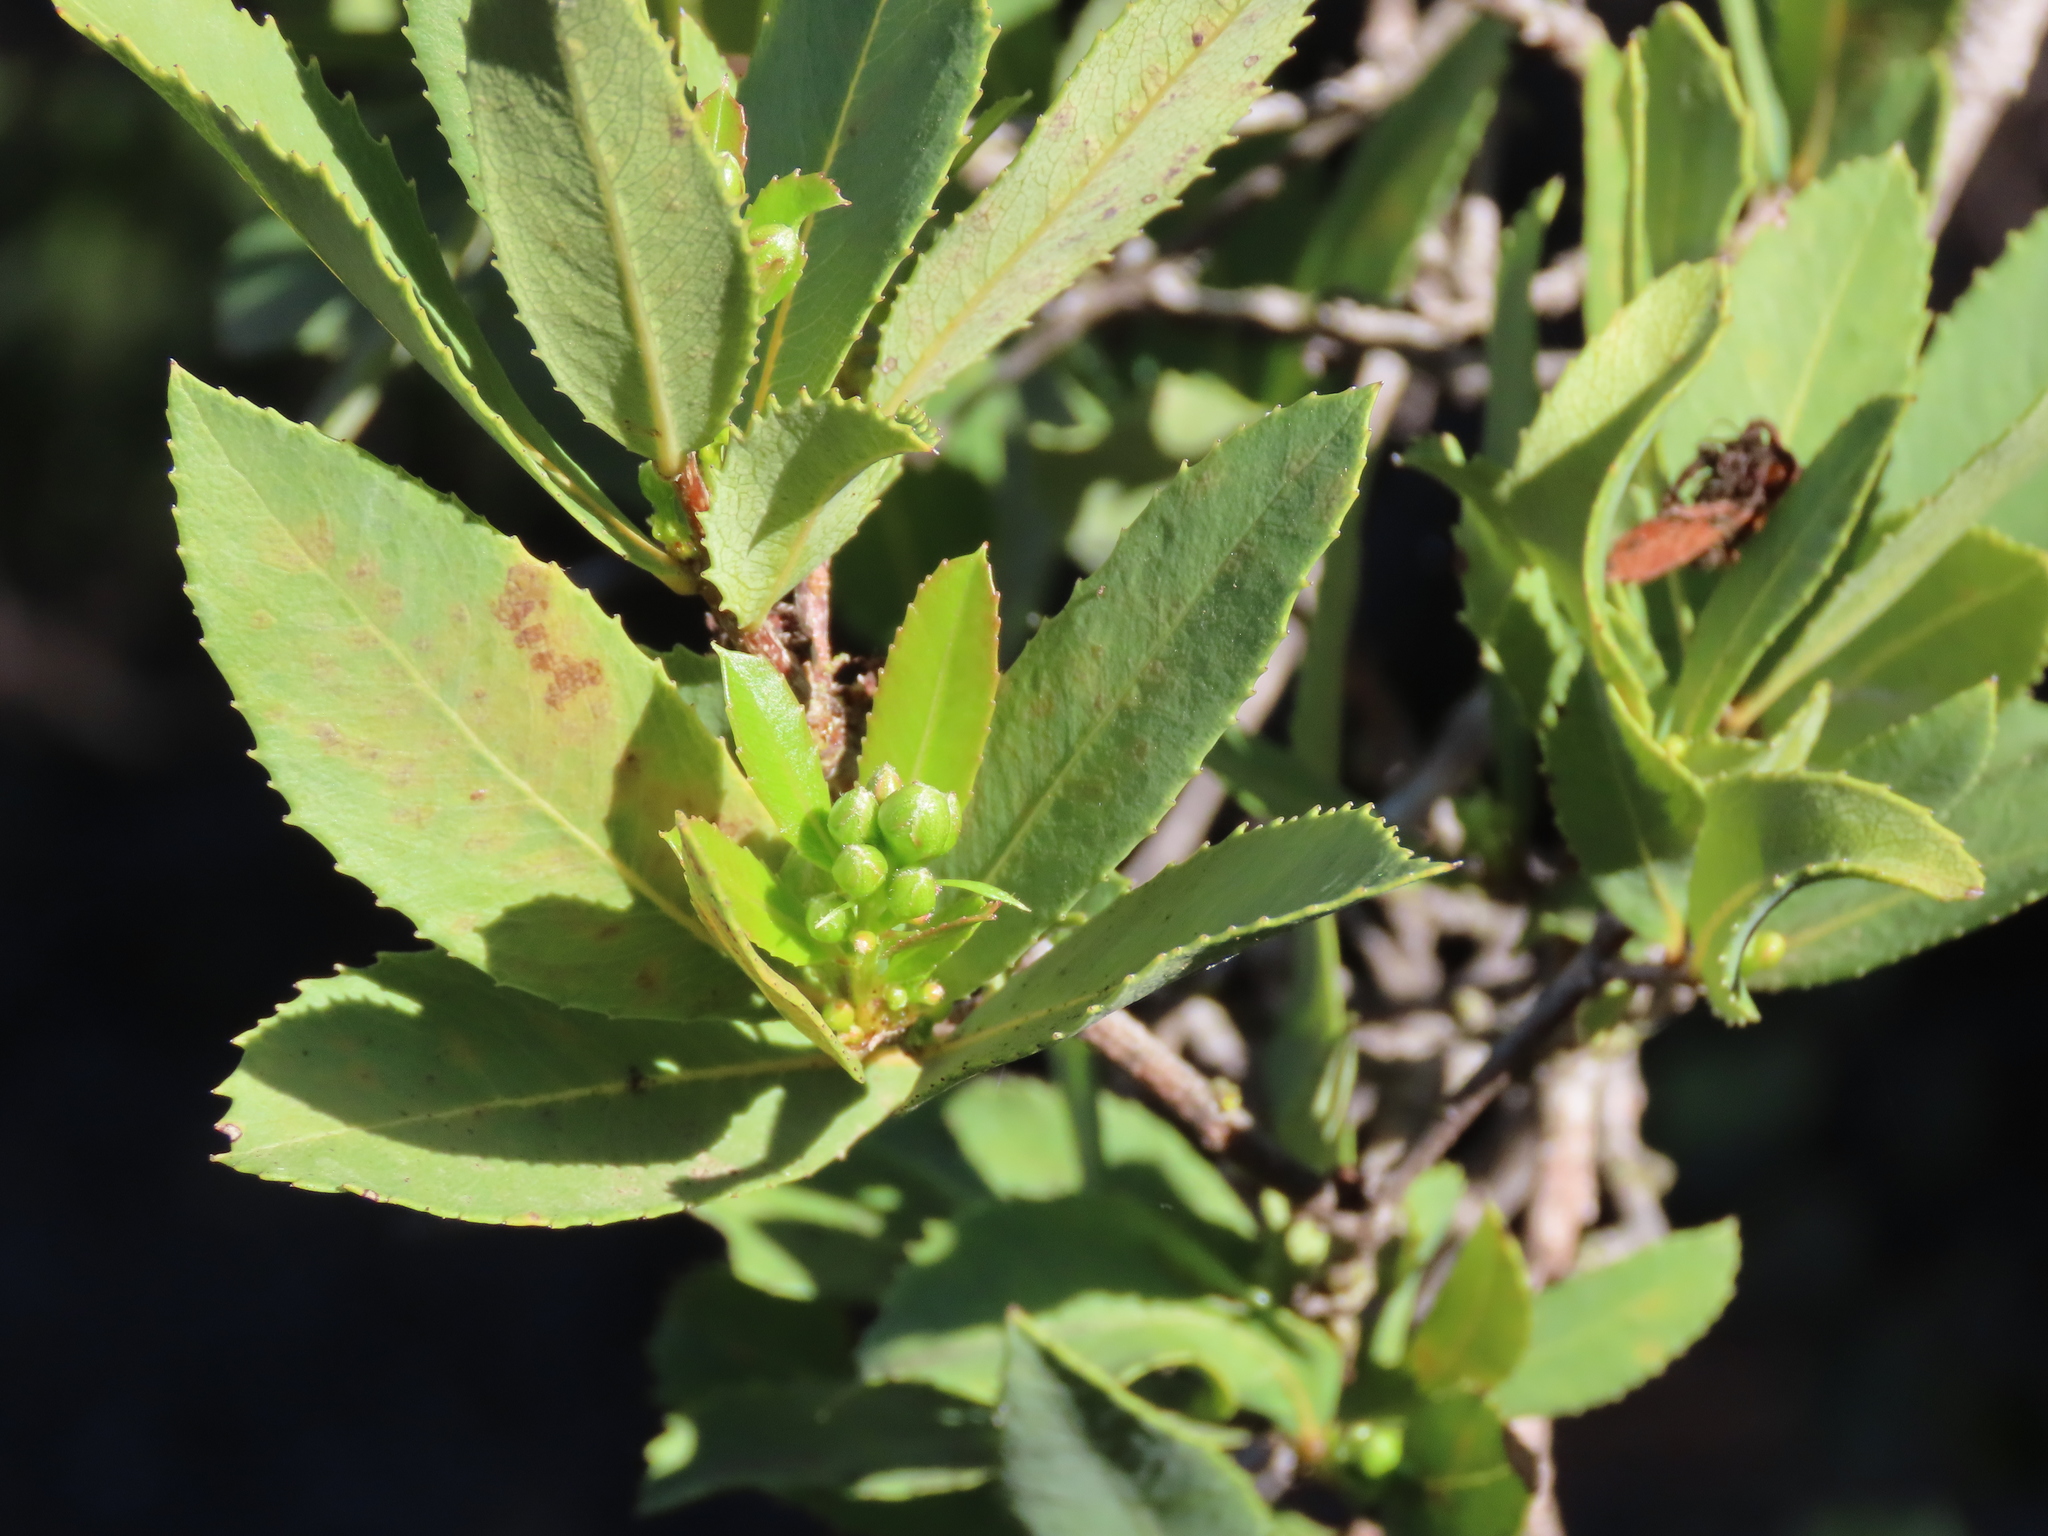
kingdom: Plantae
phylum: Tracheophyta
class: Magnoliopsida
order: Rosales
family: Rosaceae
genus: Kageneckia
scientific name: Kageneckia oblonga
